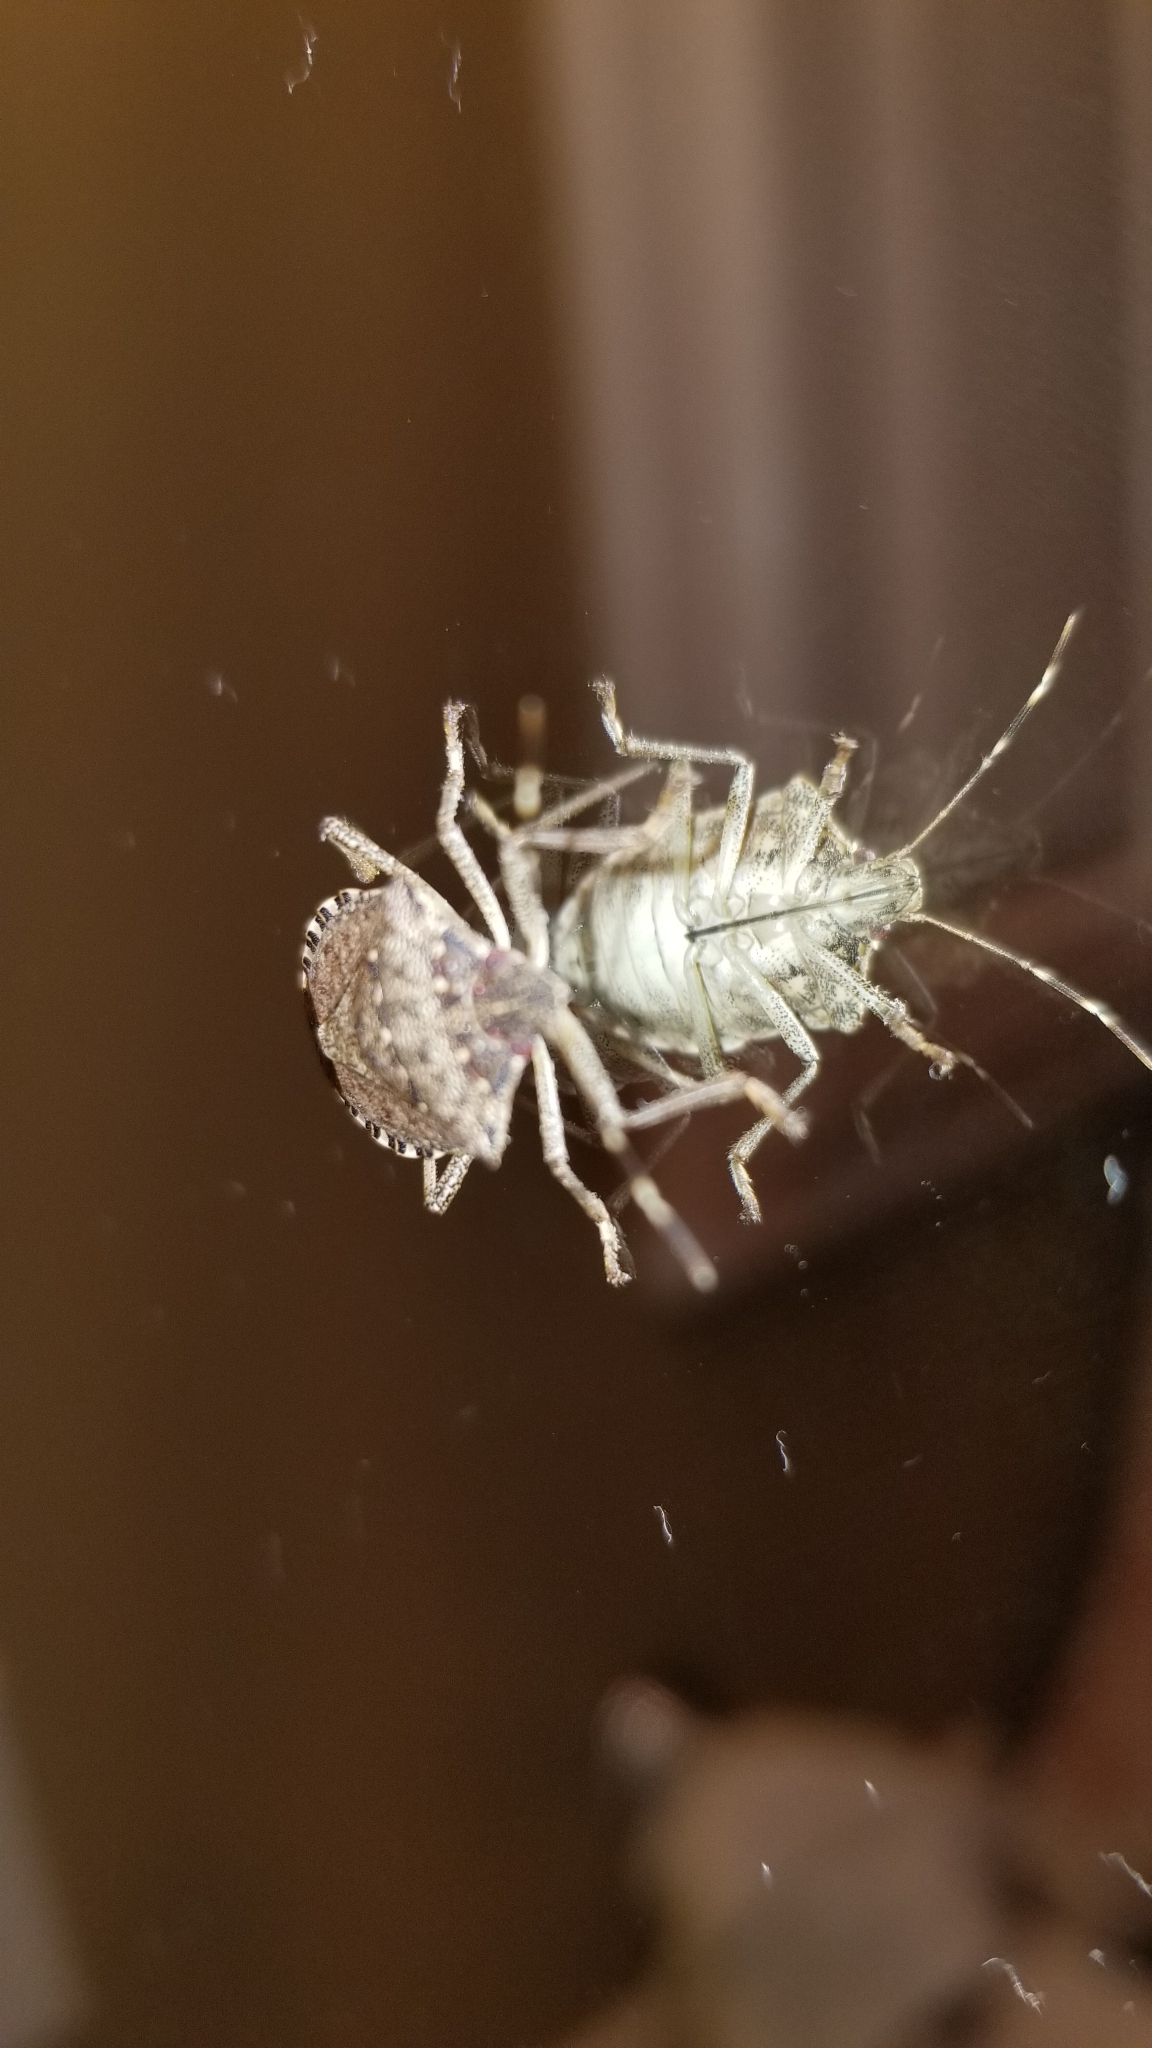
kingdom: Animalia
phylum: Arthropoda
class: Insecta
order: Hemiptera
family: Pentatomidae
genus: Halyomorpha
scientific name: Halyomorpha halys
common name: Brown marmorated stink bug
